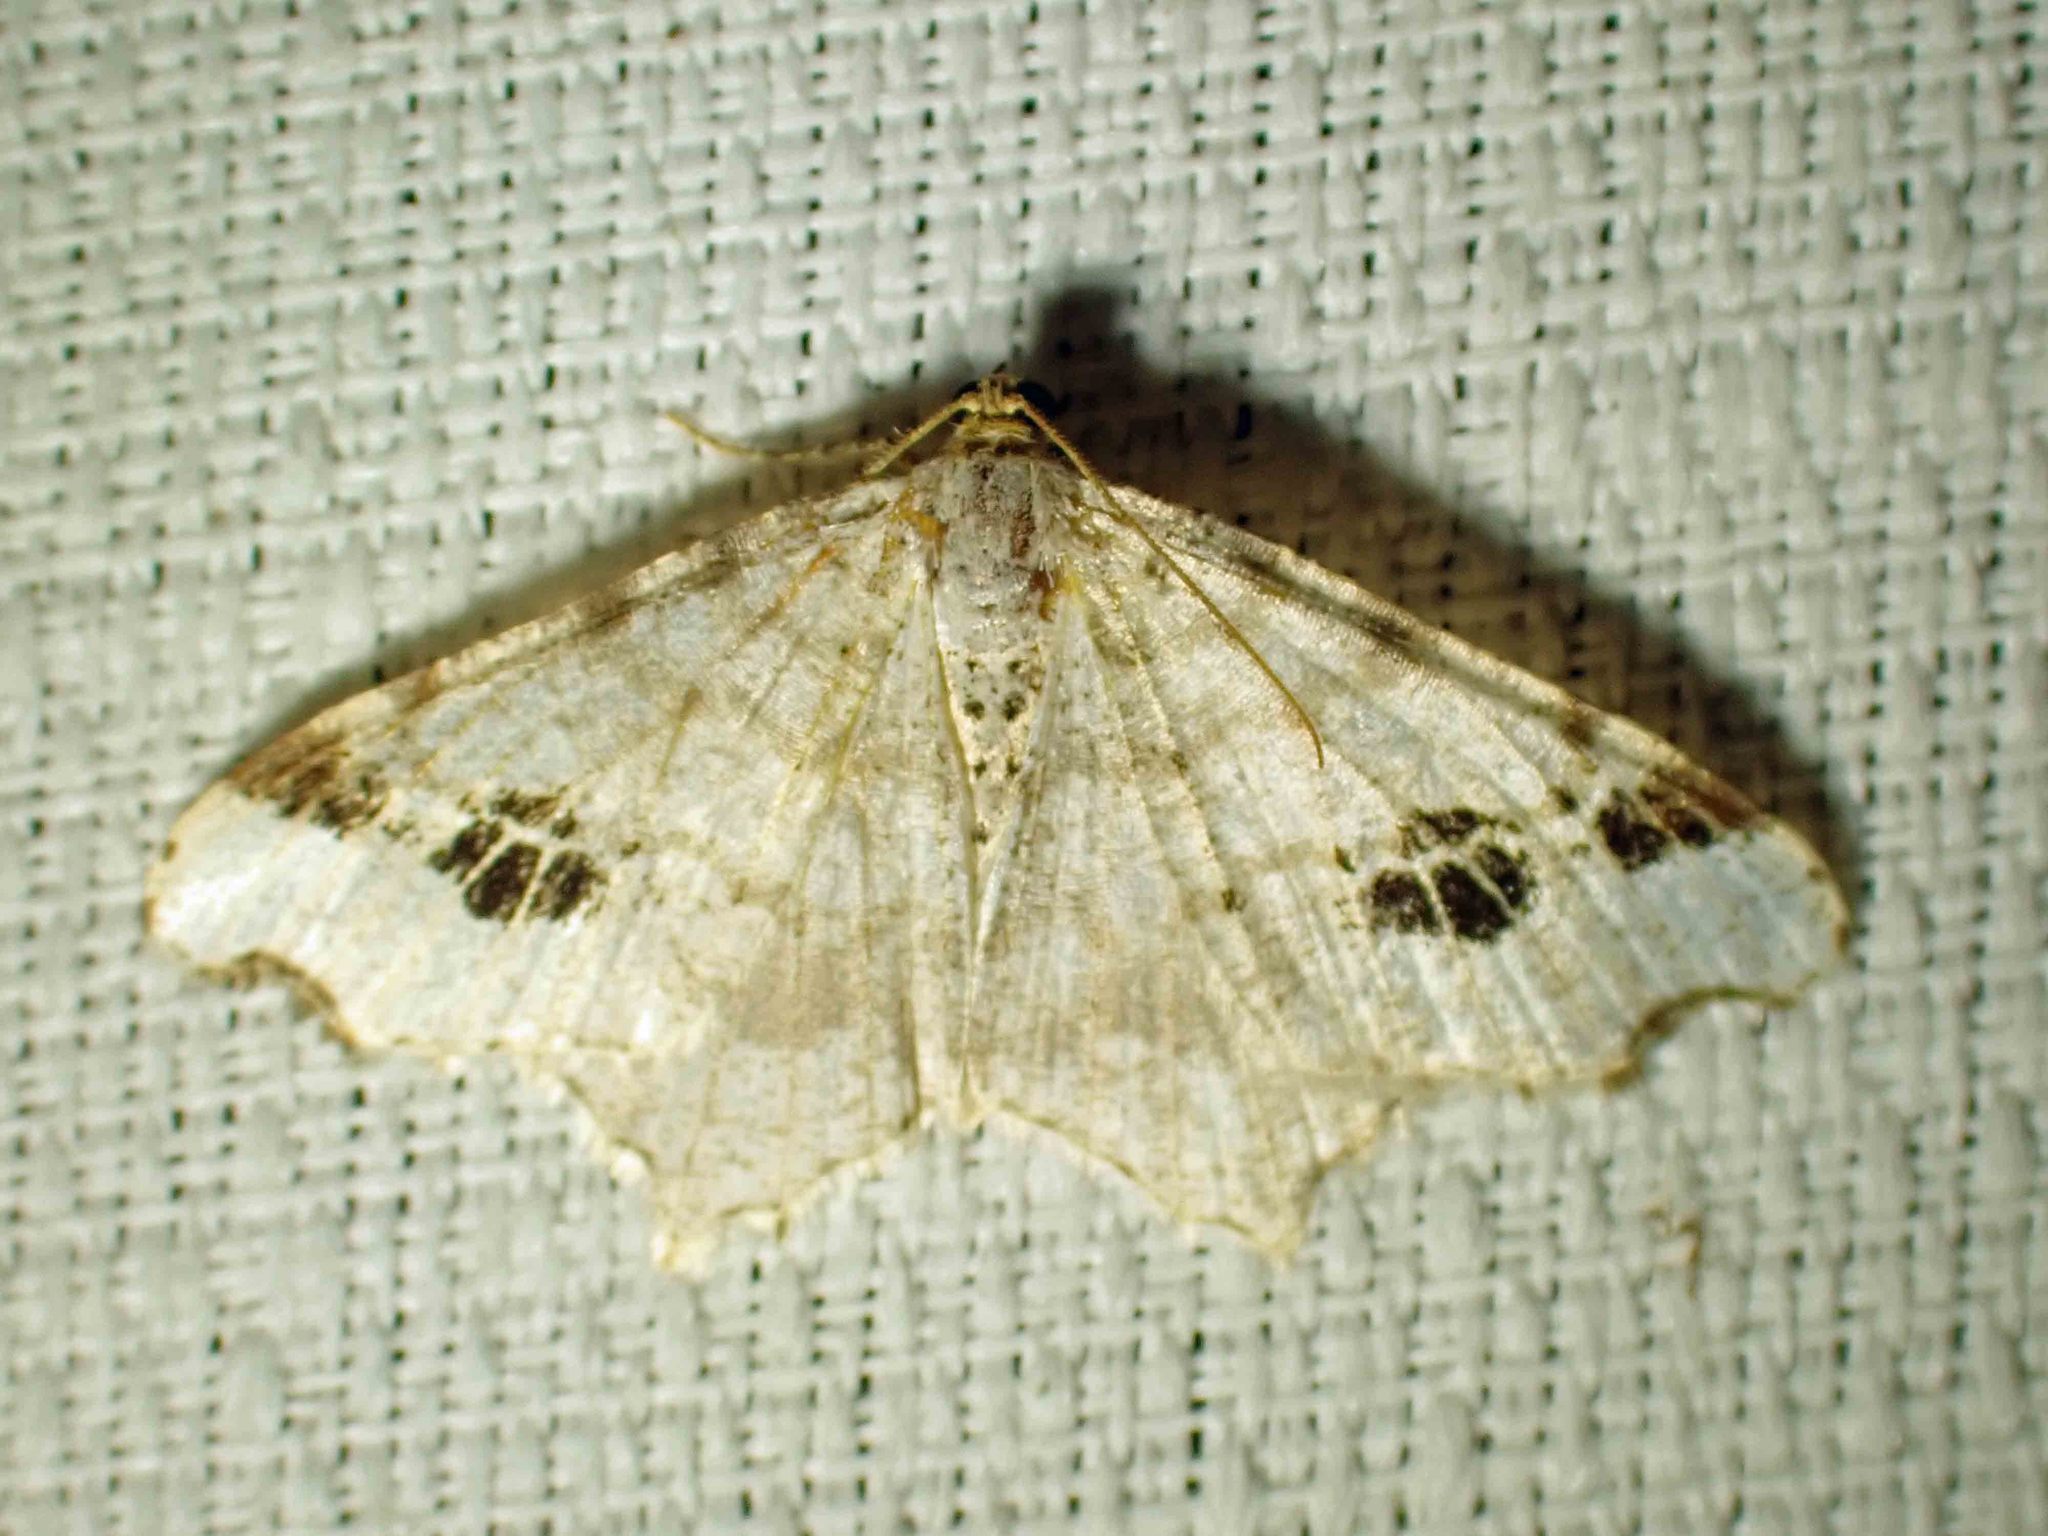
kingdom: Animalia
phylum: Arthropoda
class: Insecta
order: Lepidoptera
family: Geometridae
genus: Macaria
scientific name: Macaria ulsterata
